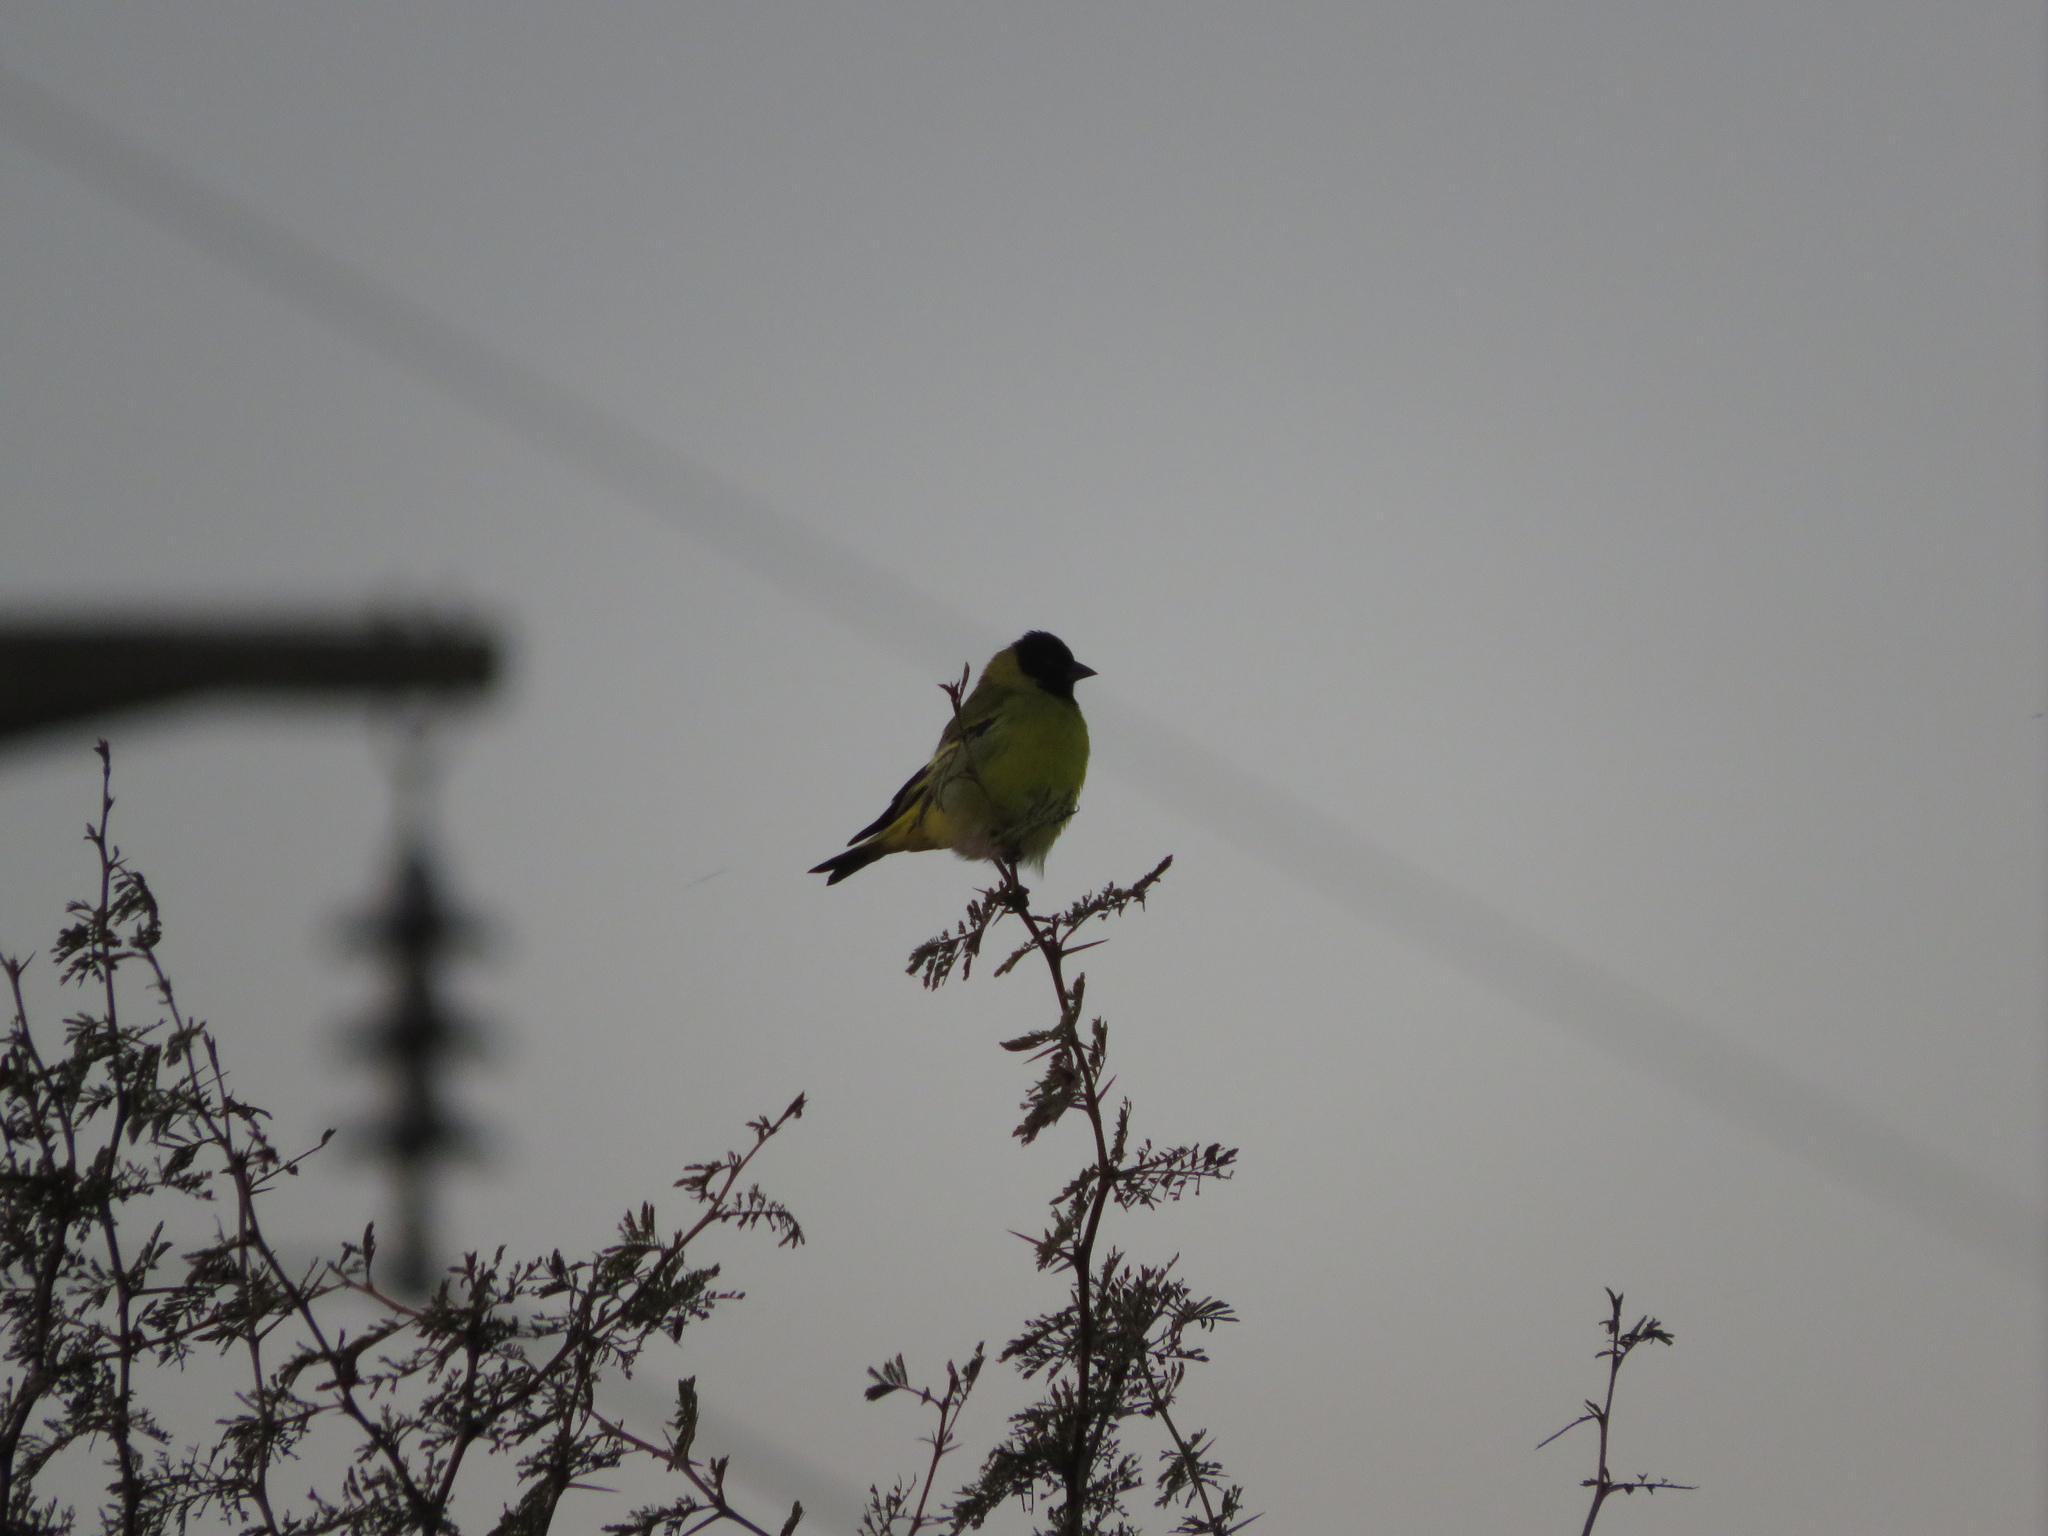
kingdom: Animalia
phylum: Chordata
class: Aves
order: Passeriformes
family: Fringillidae
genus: Spinus
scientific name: Spinus magellanicus
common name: Hooded siskin
